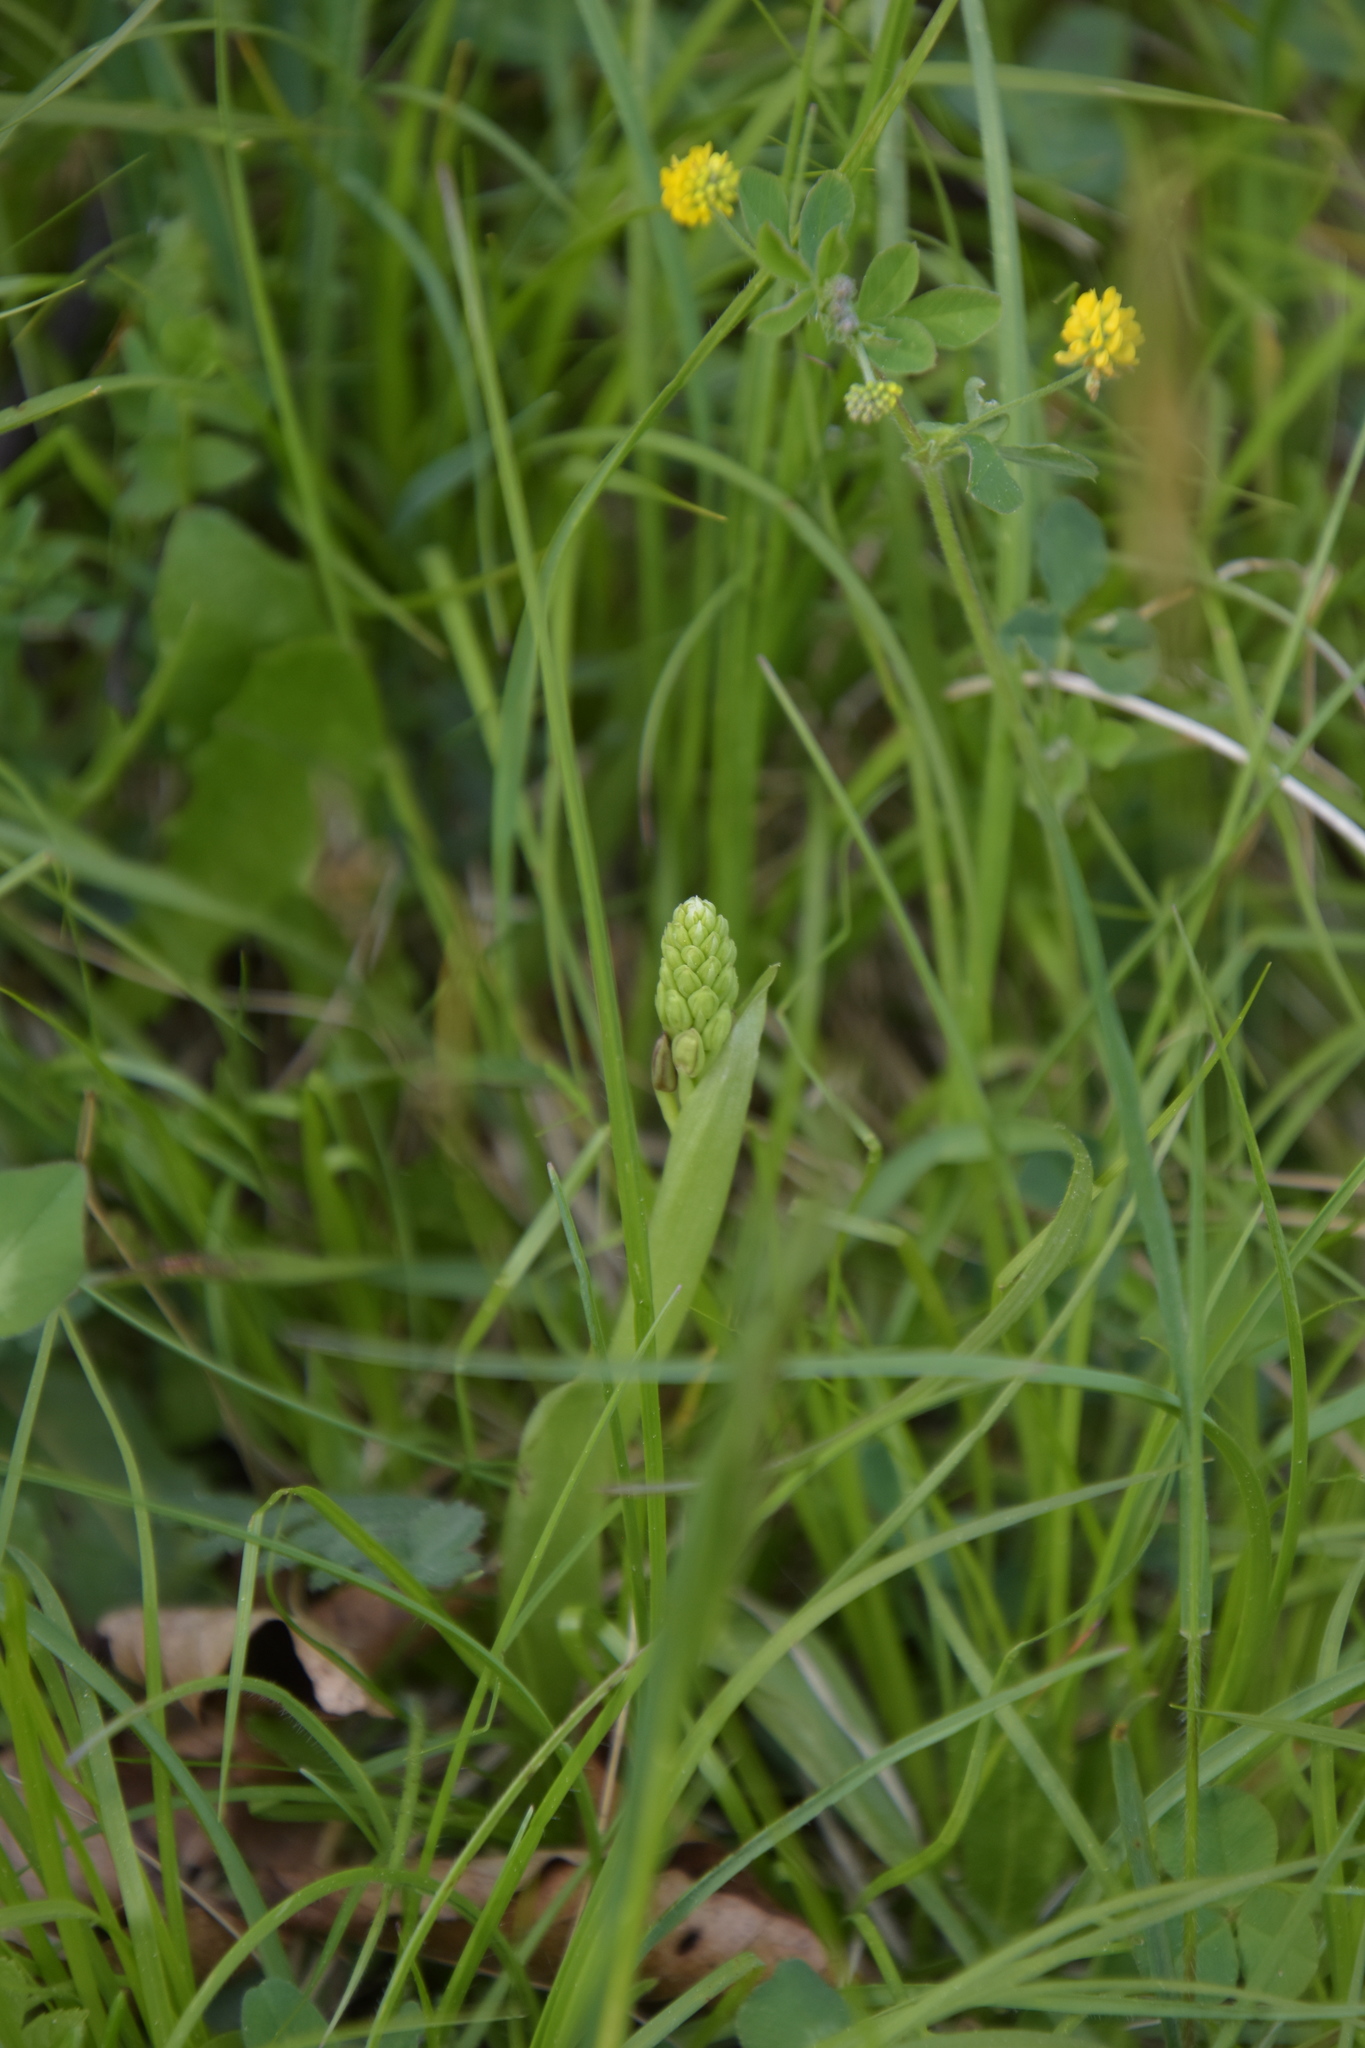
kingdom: Plantae
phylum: Tracheophyta
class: Liliopsida
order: Asparagales
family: Orchidaceae
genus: Orchis
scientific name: Orchis anthropophora
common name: Man orchid
